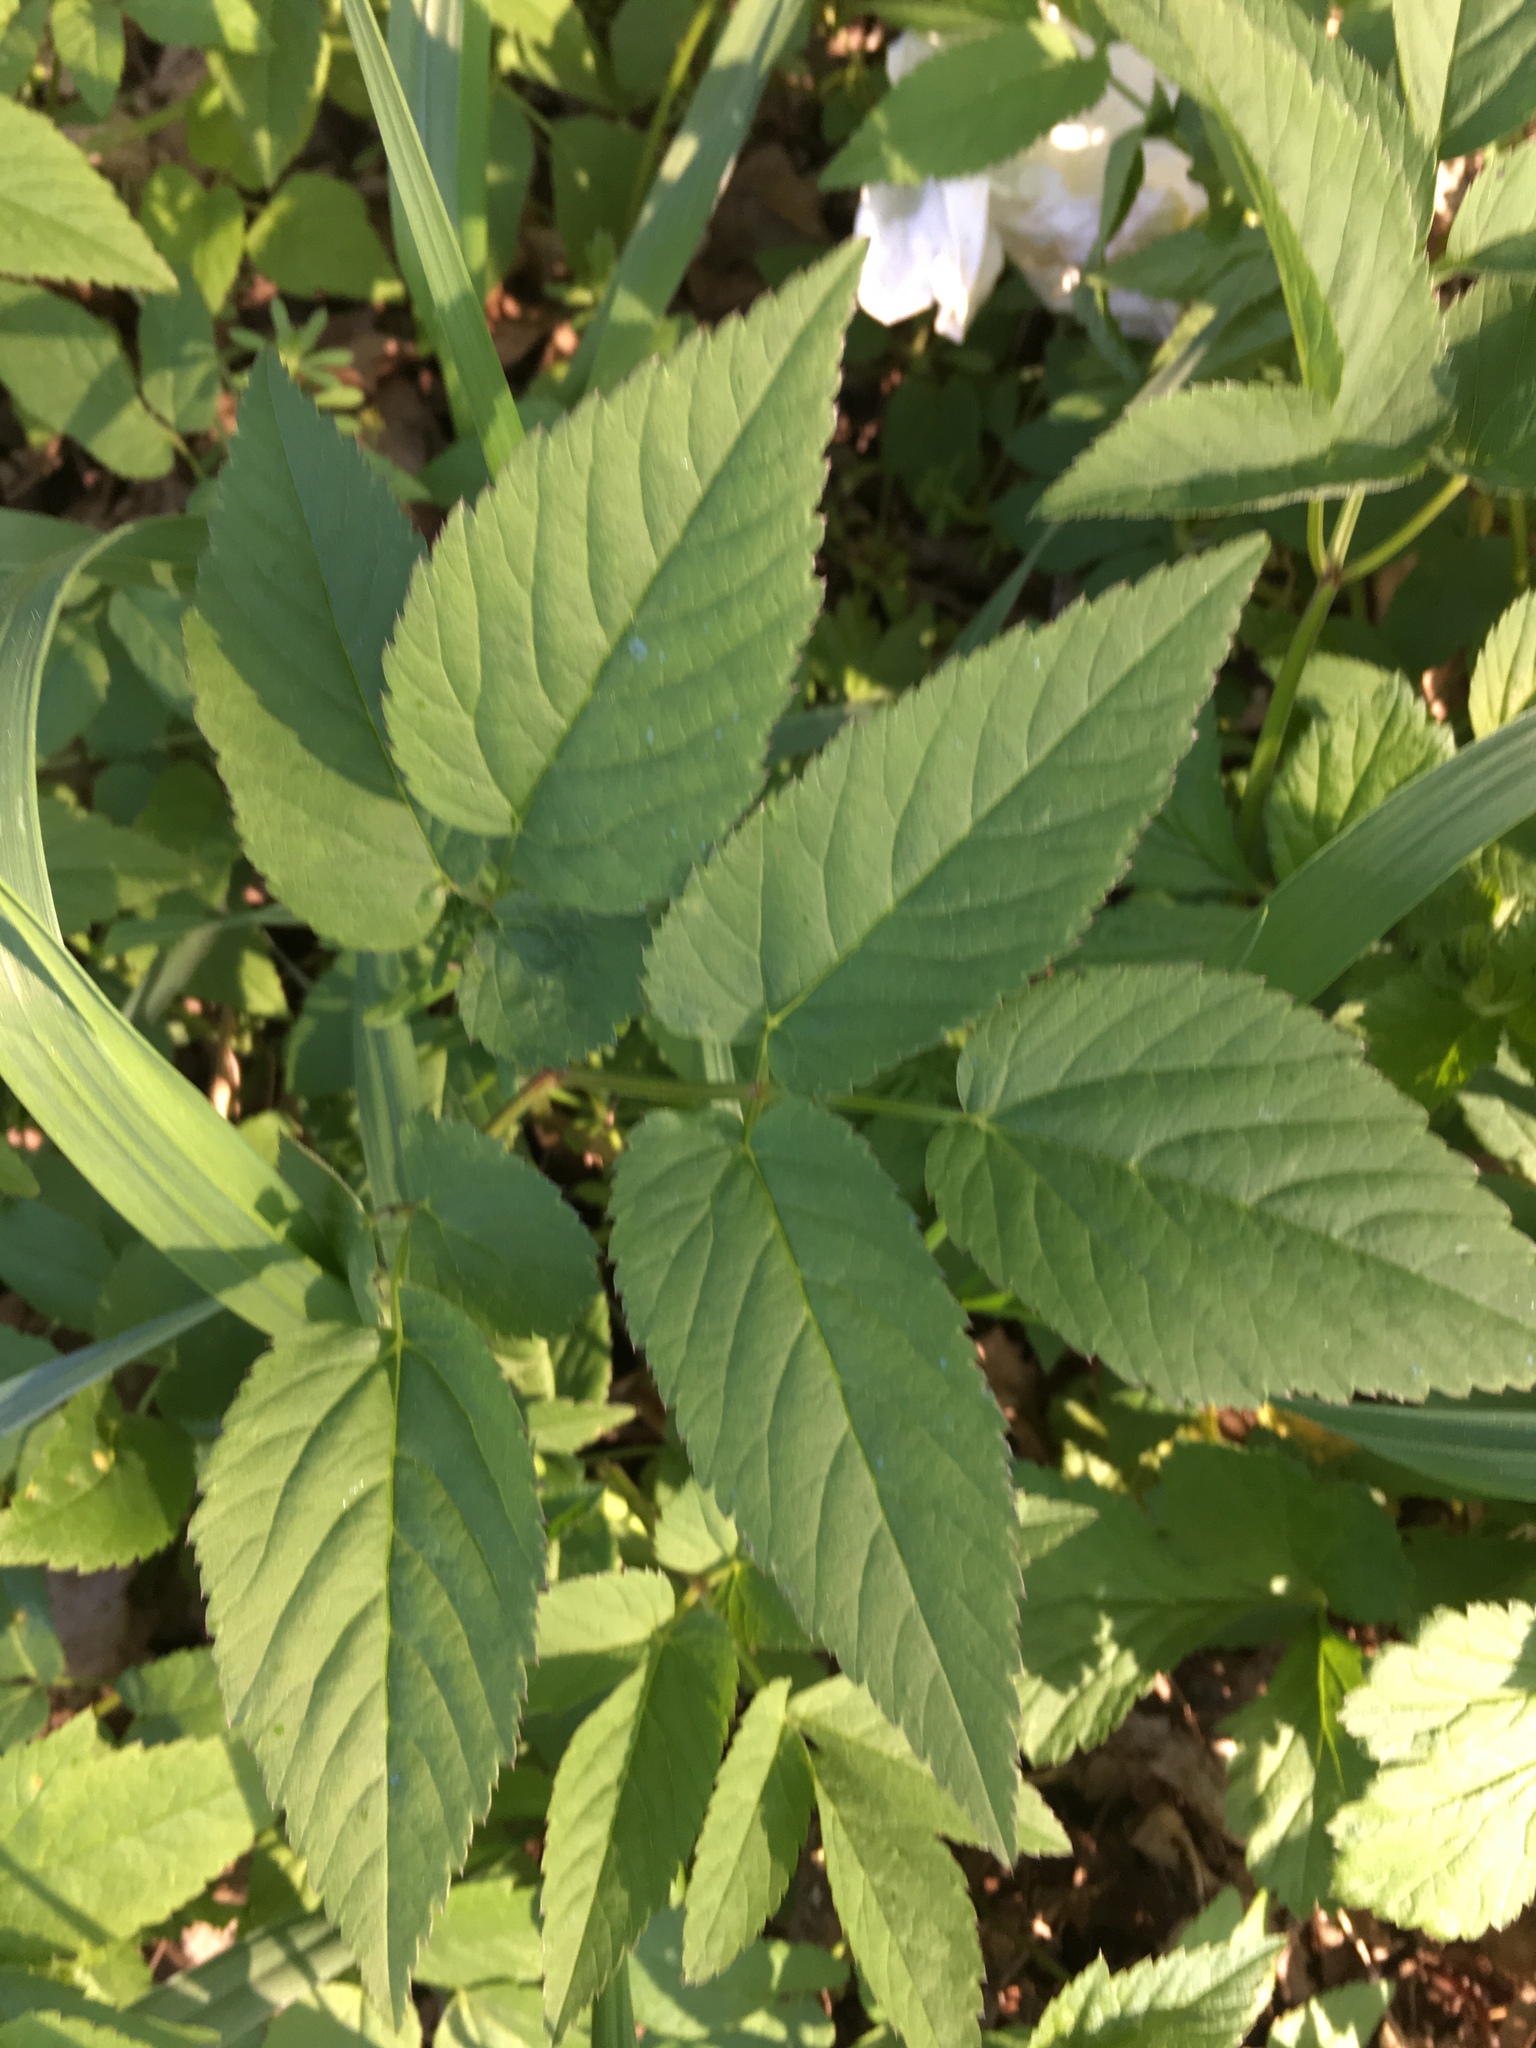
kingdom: Plantae
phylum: Tracheophyta
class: Magnoliopsida
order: Apiales
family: Apiaceae
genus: Aegopodium
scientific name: Aegopodium podagraria
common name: Ground-elder
